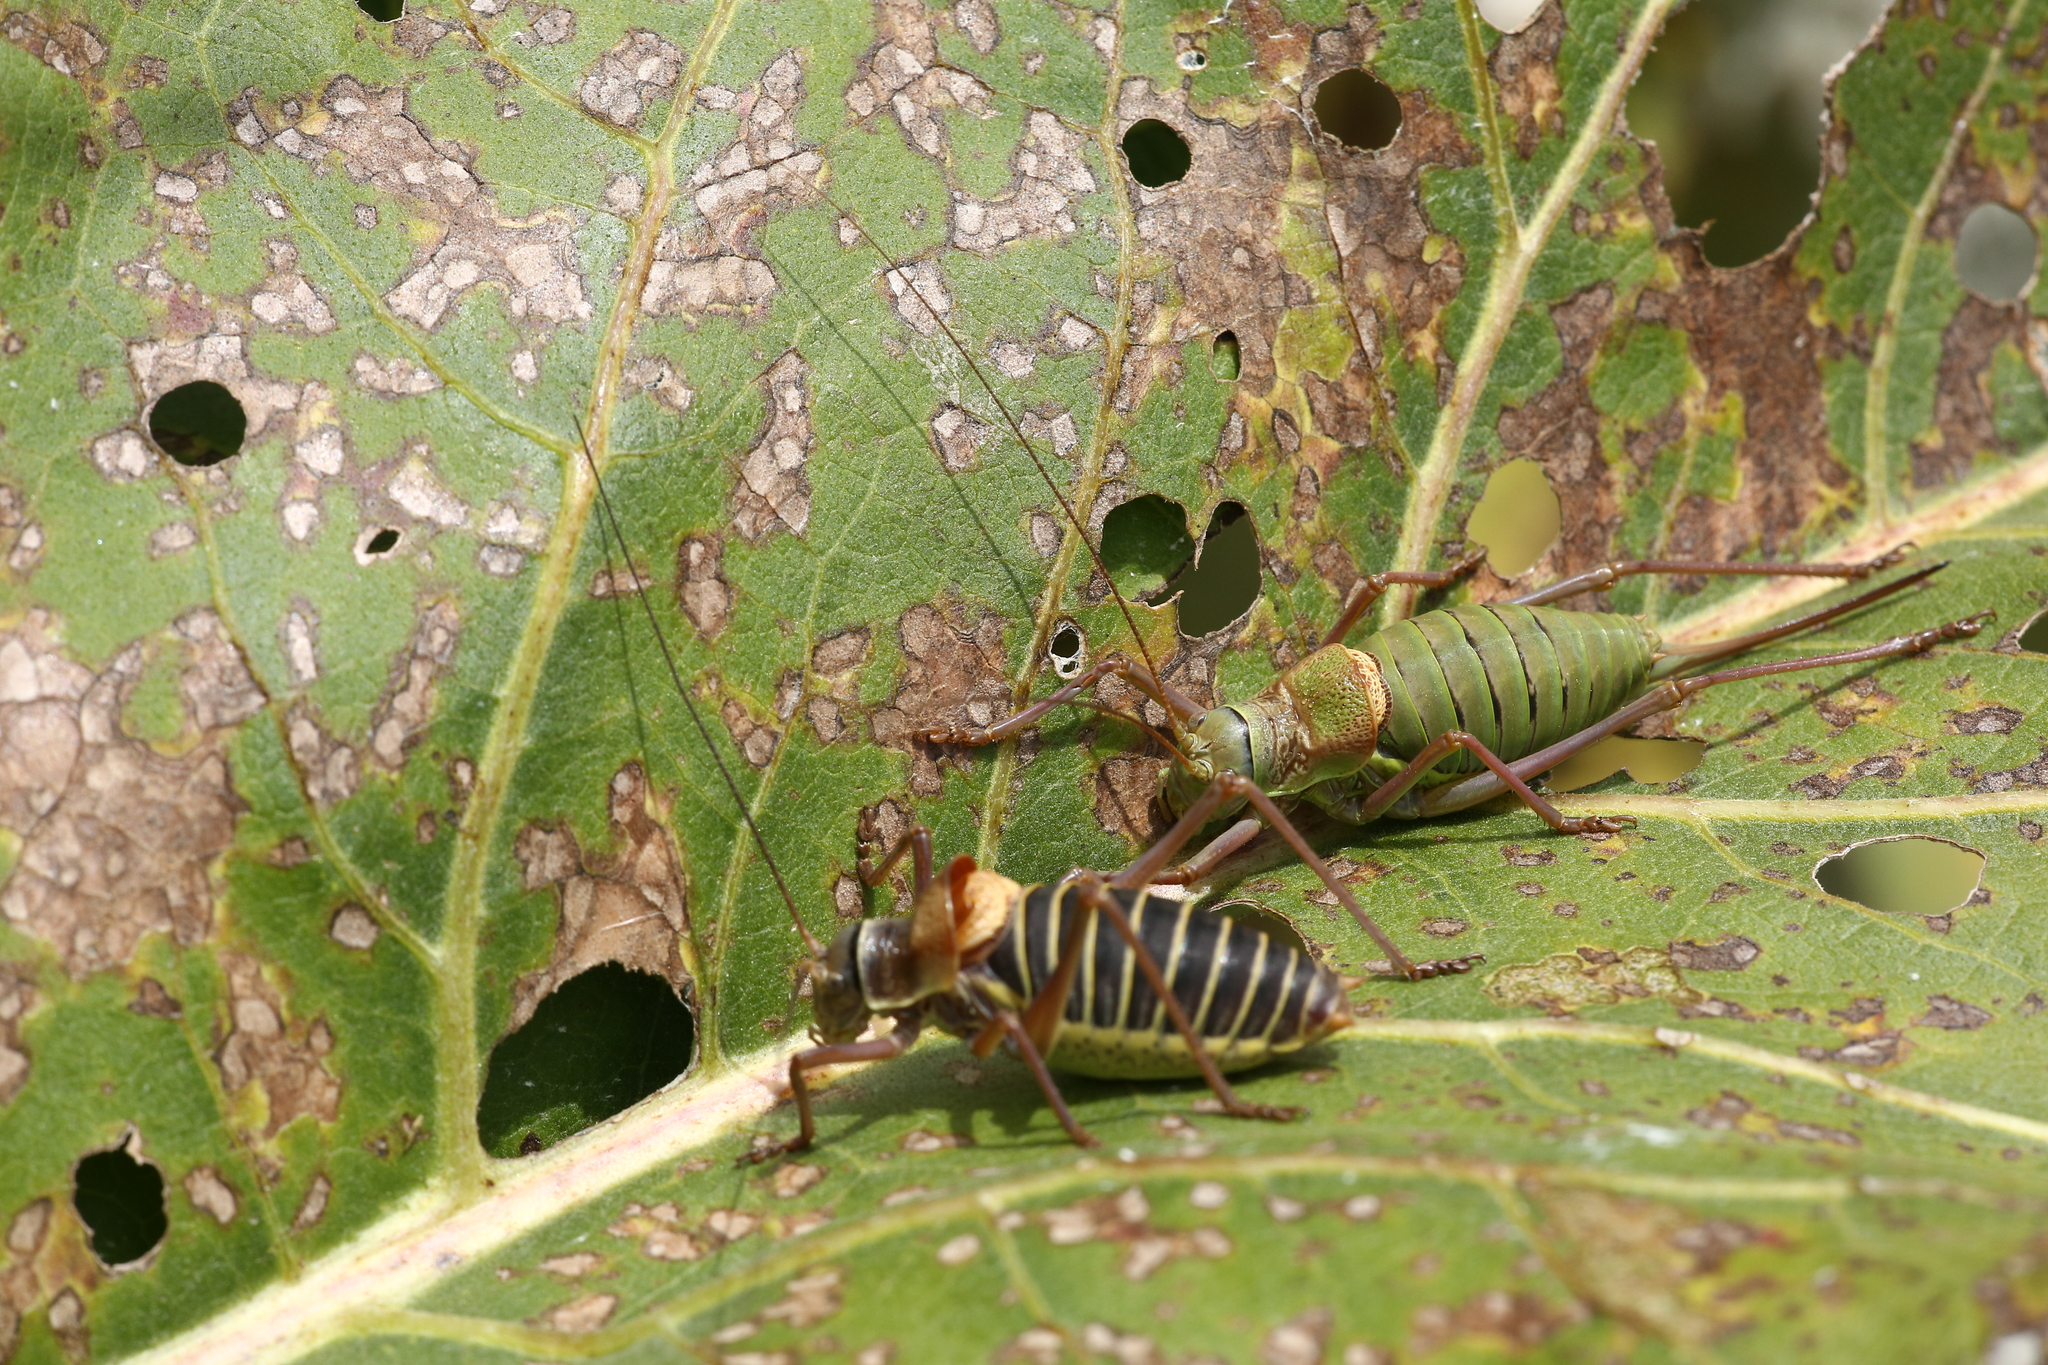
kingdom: Animalia
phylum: Arthropoda
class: Insecta
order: Orthoptera
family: Tettigoniidae
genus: Ephippiger
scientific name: Ephippiger diurnus
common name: Western saddle bush-cricket
